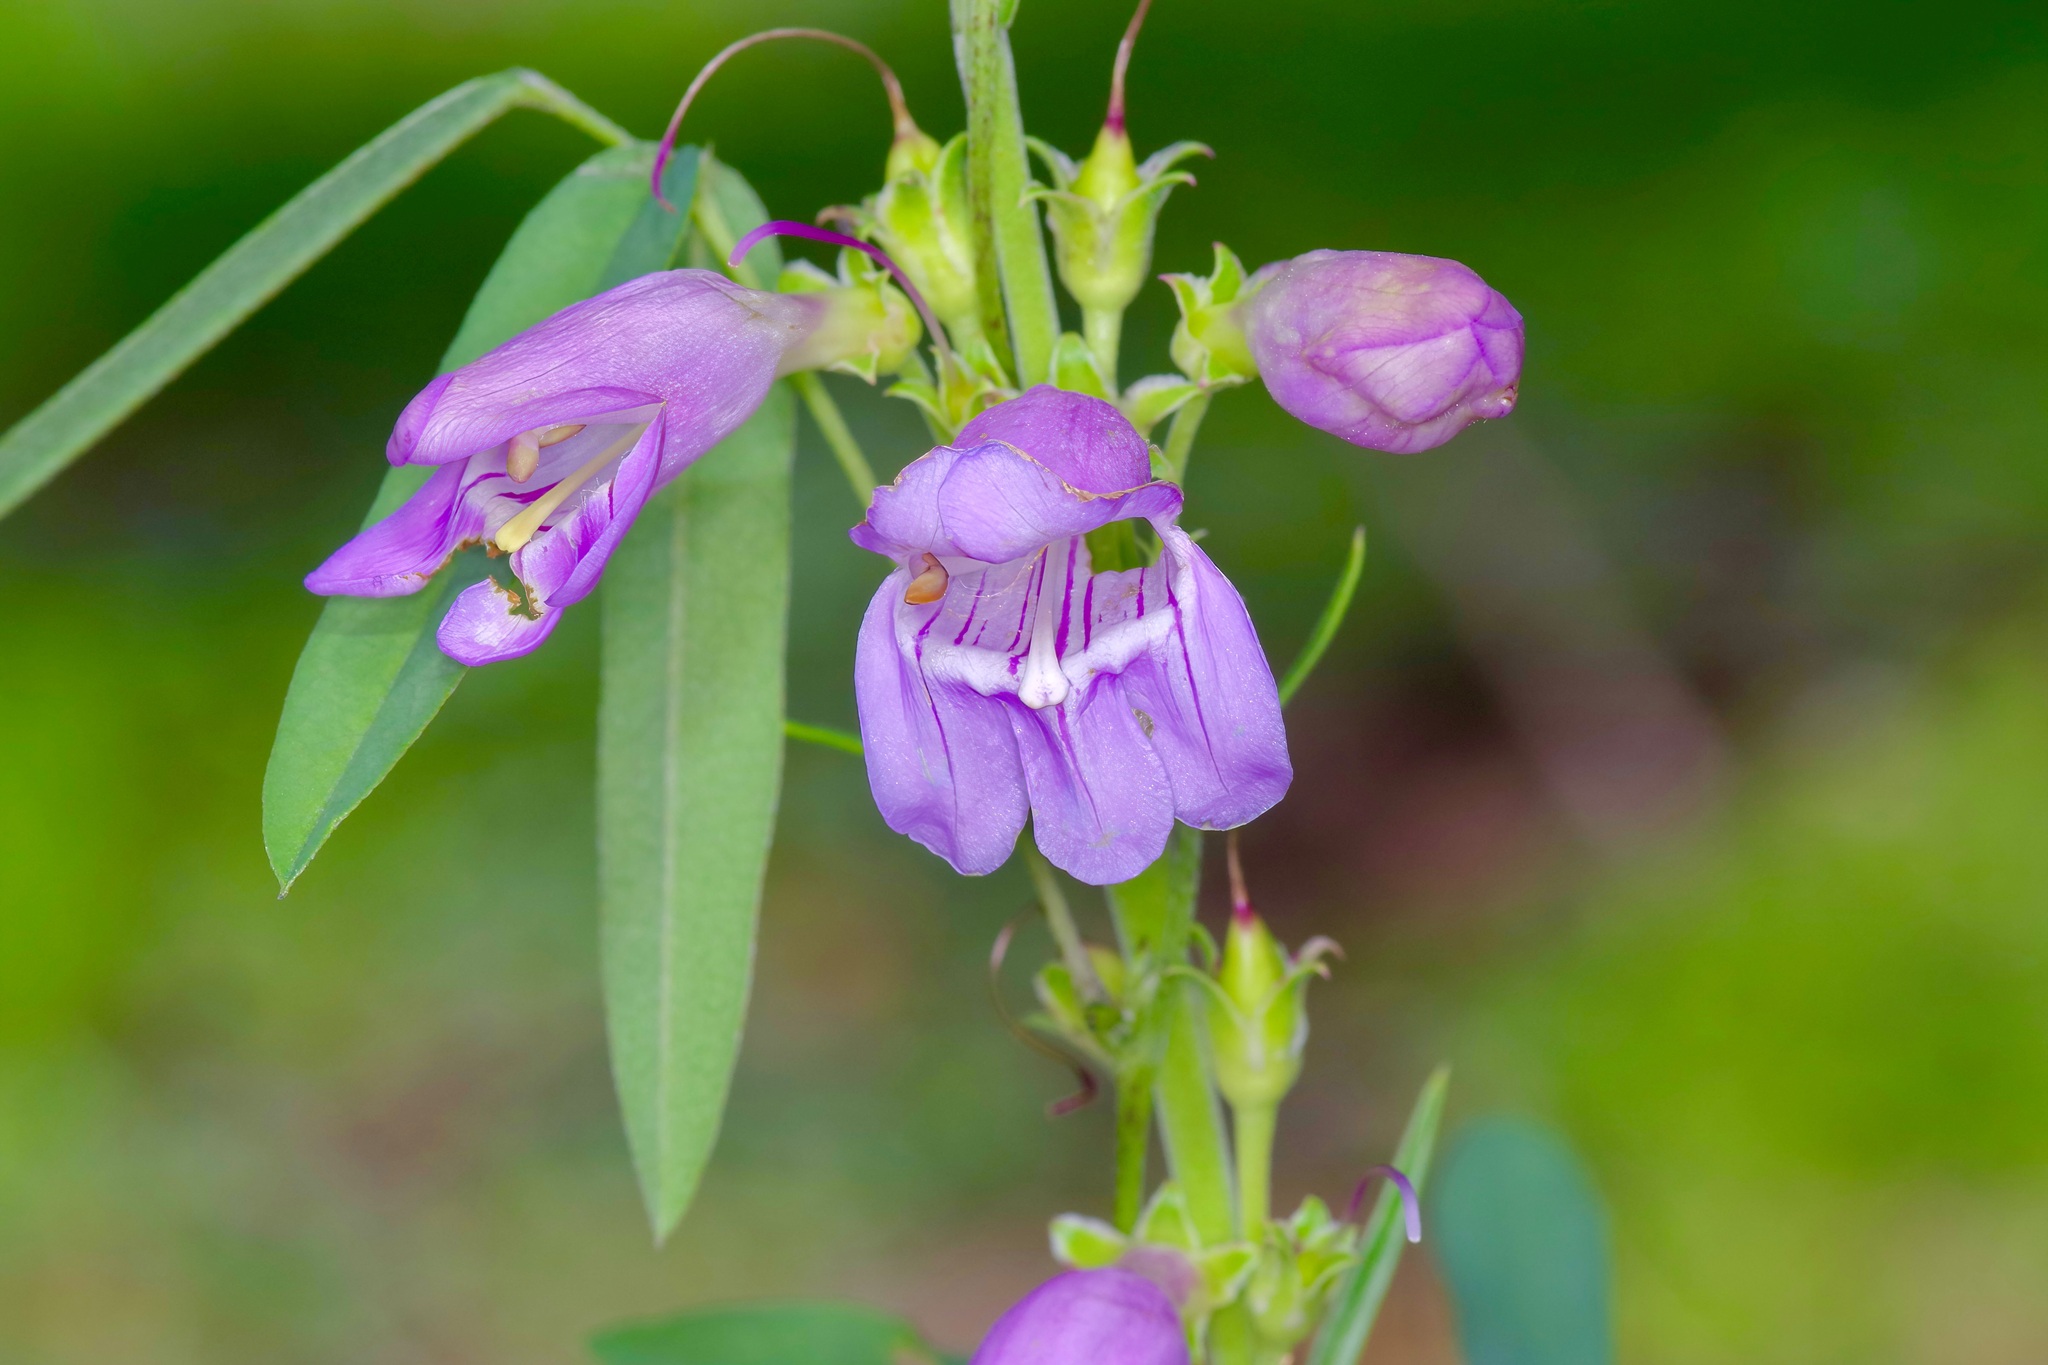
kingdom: Plantae
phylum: Tracheophyta
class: Magnoliopsida
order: Lamiales
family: Plantaginaceae
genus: Penstemon
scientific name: Penstemon virgatus
